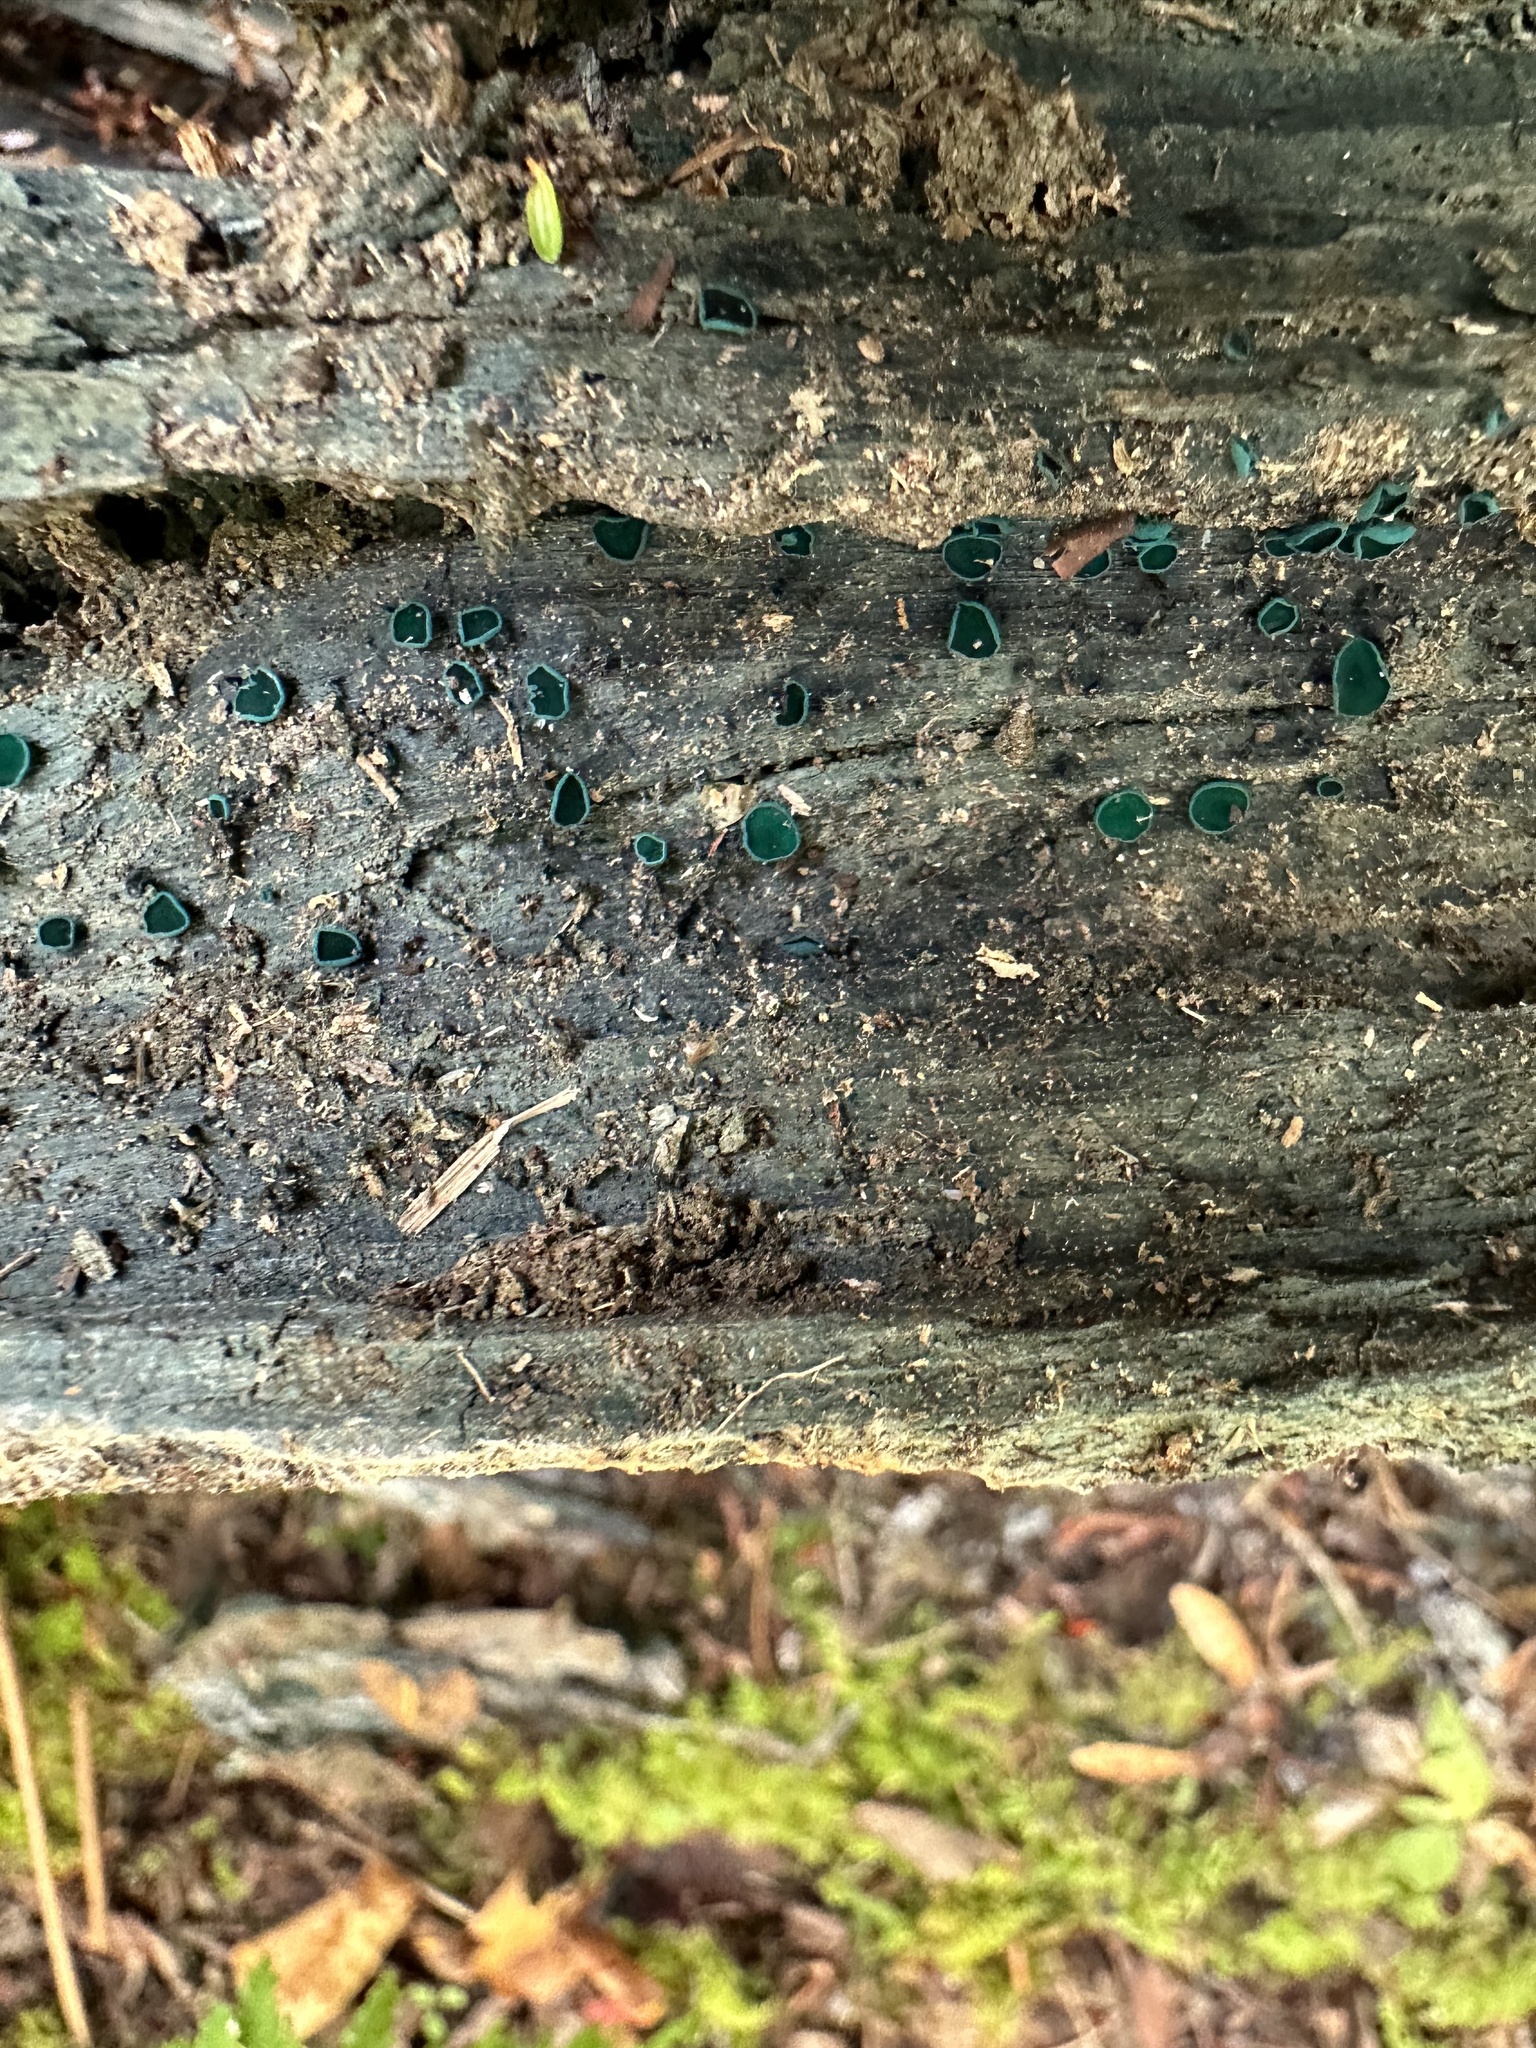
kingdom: Fungi
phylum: Ascomycota
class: Leotiomycetes
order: Helotiales
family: Chlorociboriaceae
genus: Chlorociboria
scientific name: Chlorociboria aeruginosa
